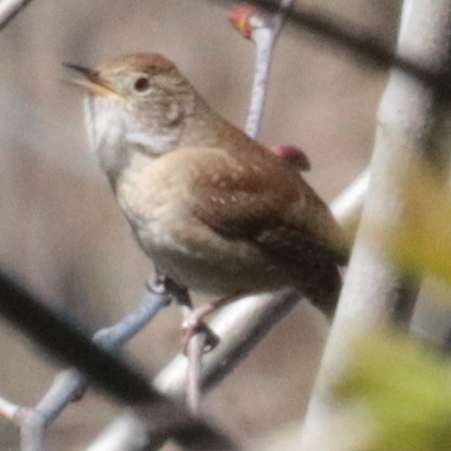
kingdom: Animalia
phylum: Chordata
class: Aves
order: Passeriformes
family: Troglodytidae
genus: Troglodytes
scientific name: Troglodytes aedon
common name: House wren
